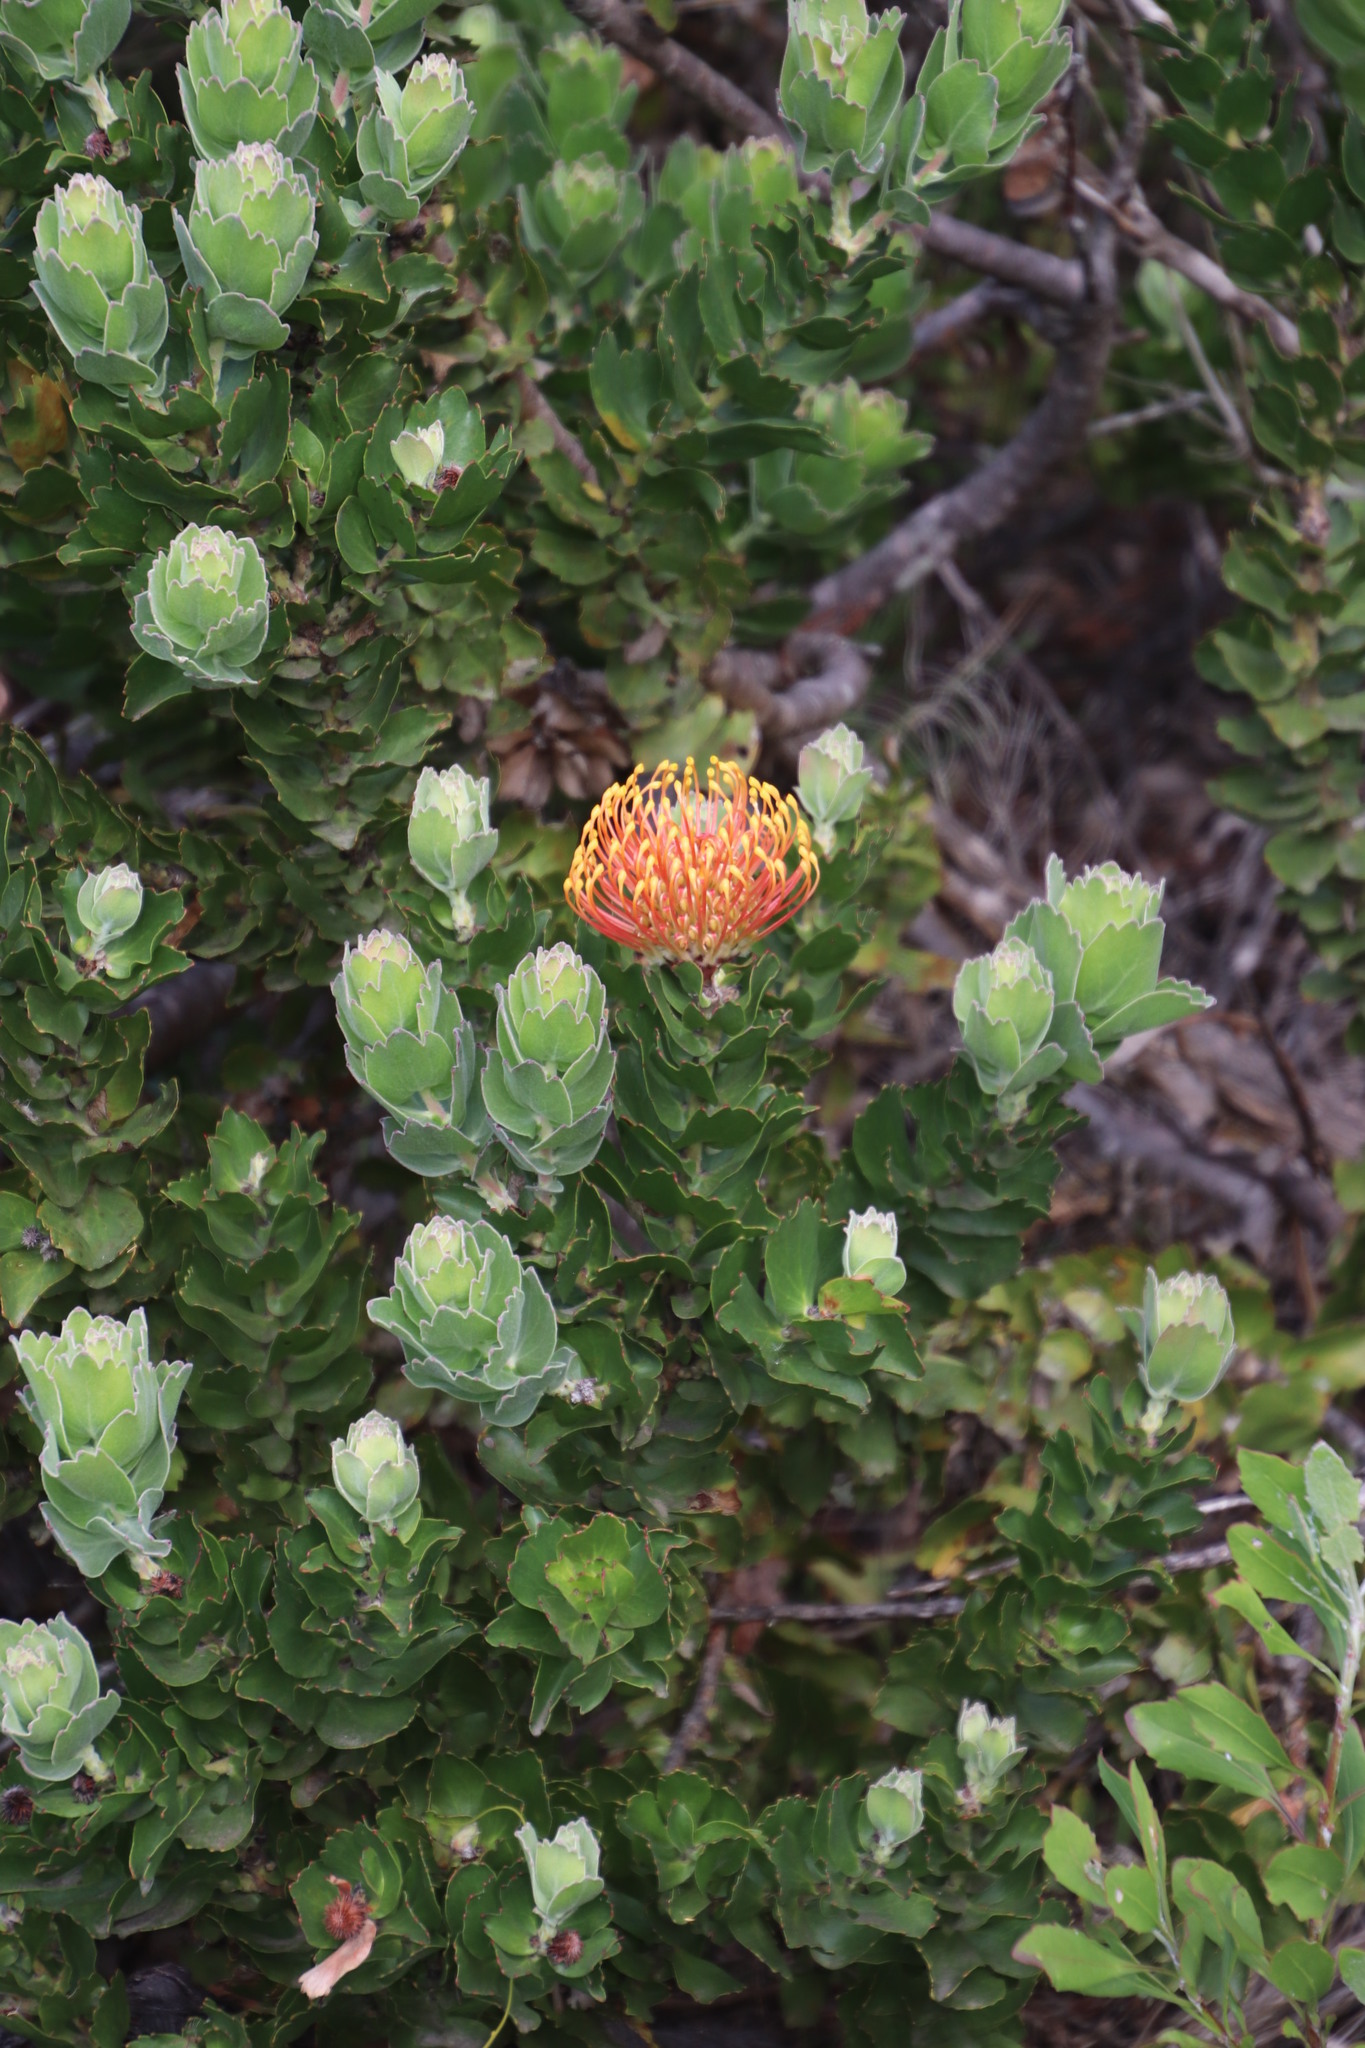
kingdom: Plantae
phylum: Tracheophyta
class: Magnoliopsida
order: Proteales
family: Proteaceae
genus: Leucospermum
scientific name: Leucospermum patersonii
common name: False tree pincushion
